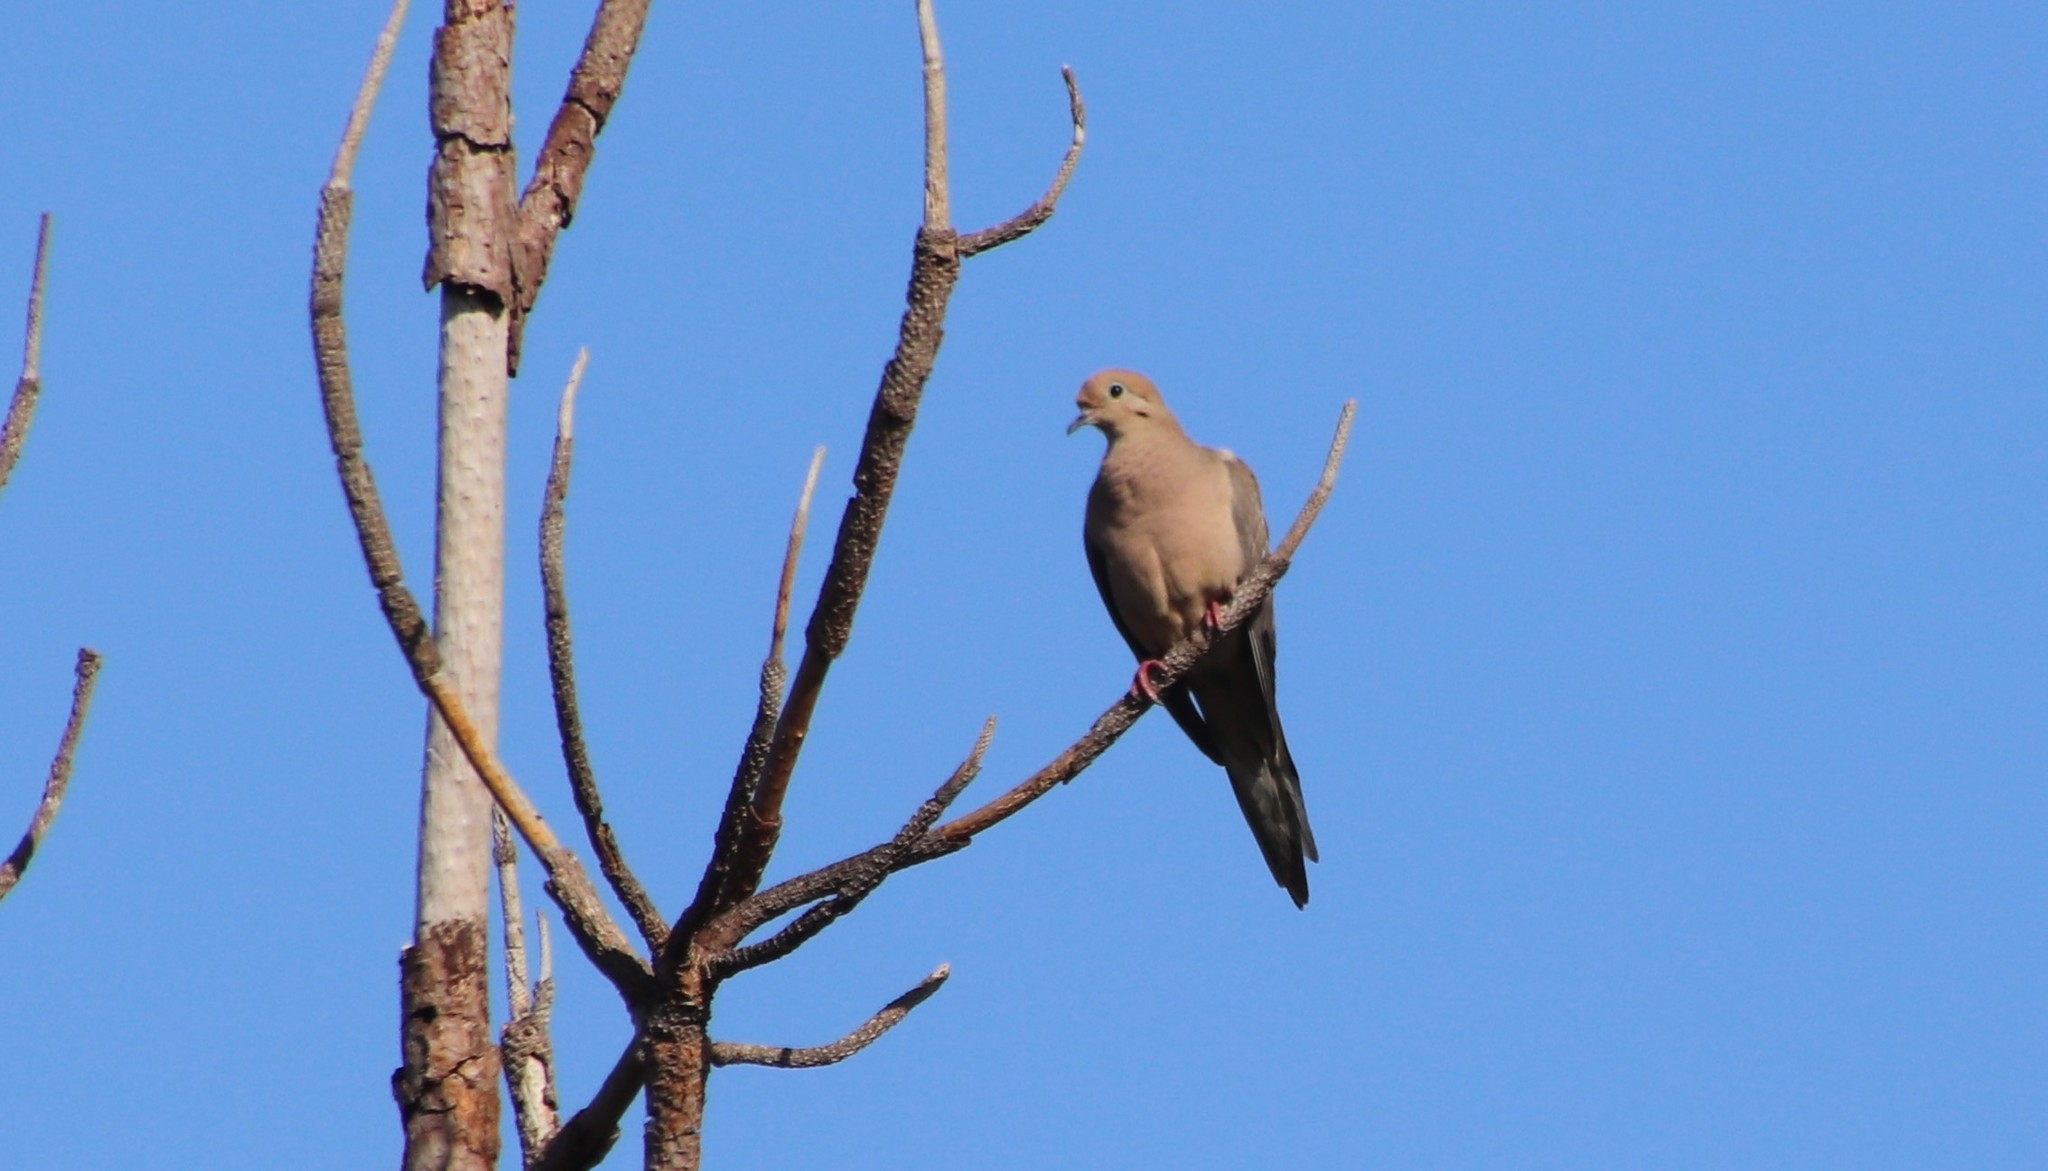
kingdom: Animalia
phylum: Chordata
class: Aves
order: Columbiformes
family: Columbidae
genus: Zenaida
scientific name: Zenaida macroura
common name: Mourning dove
